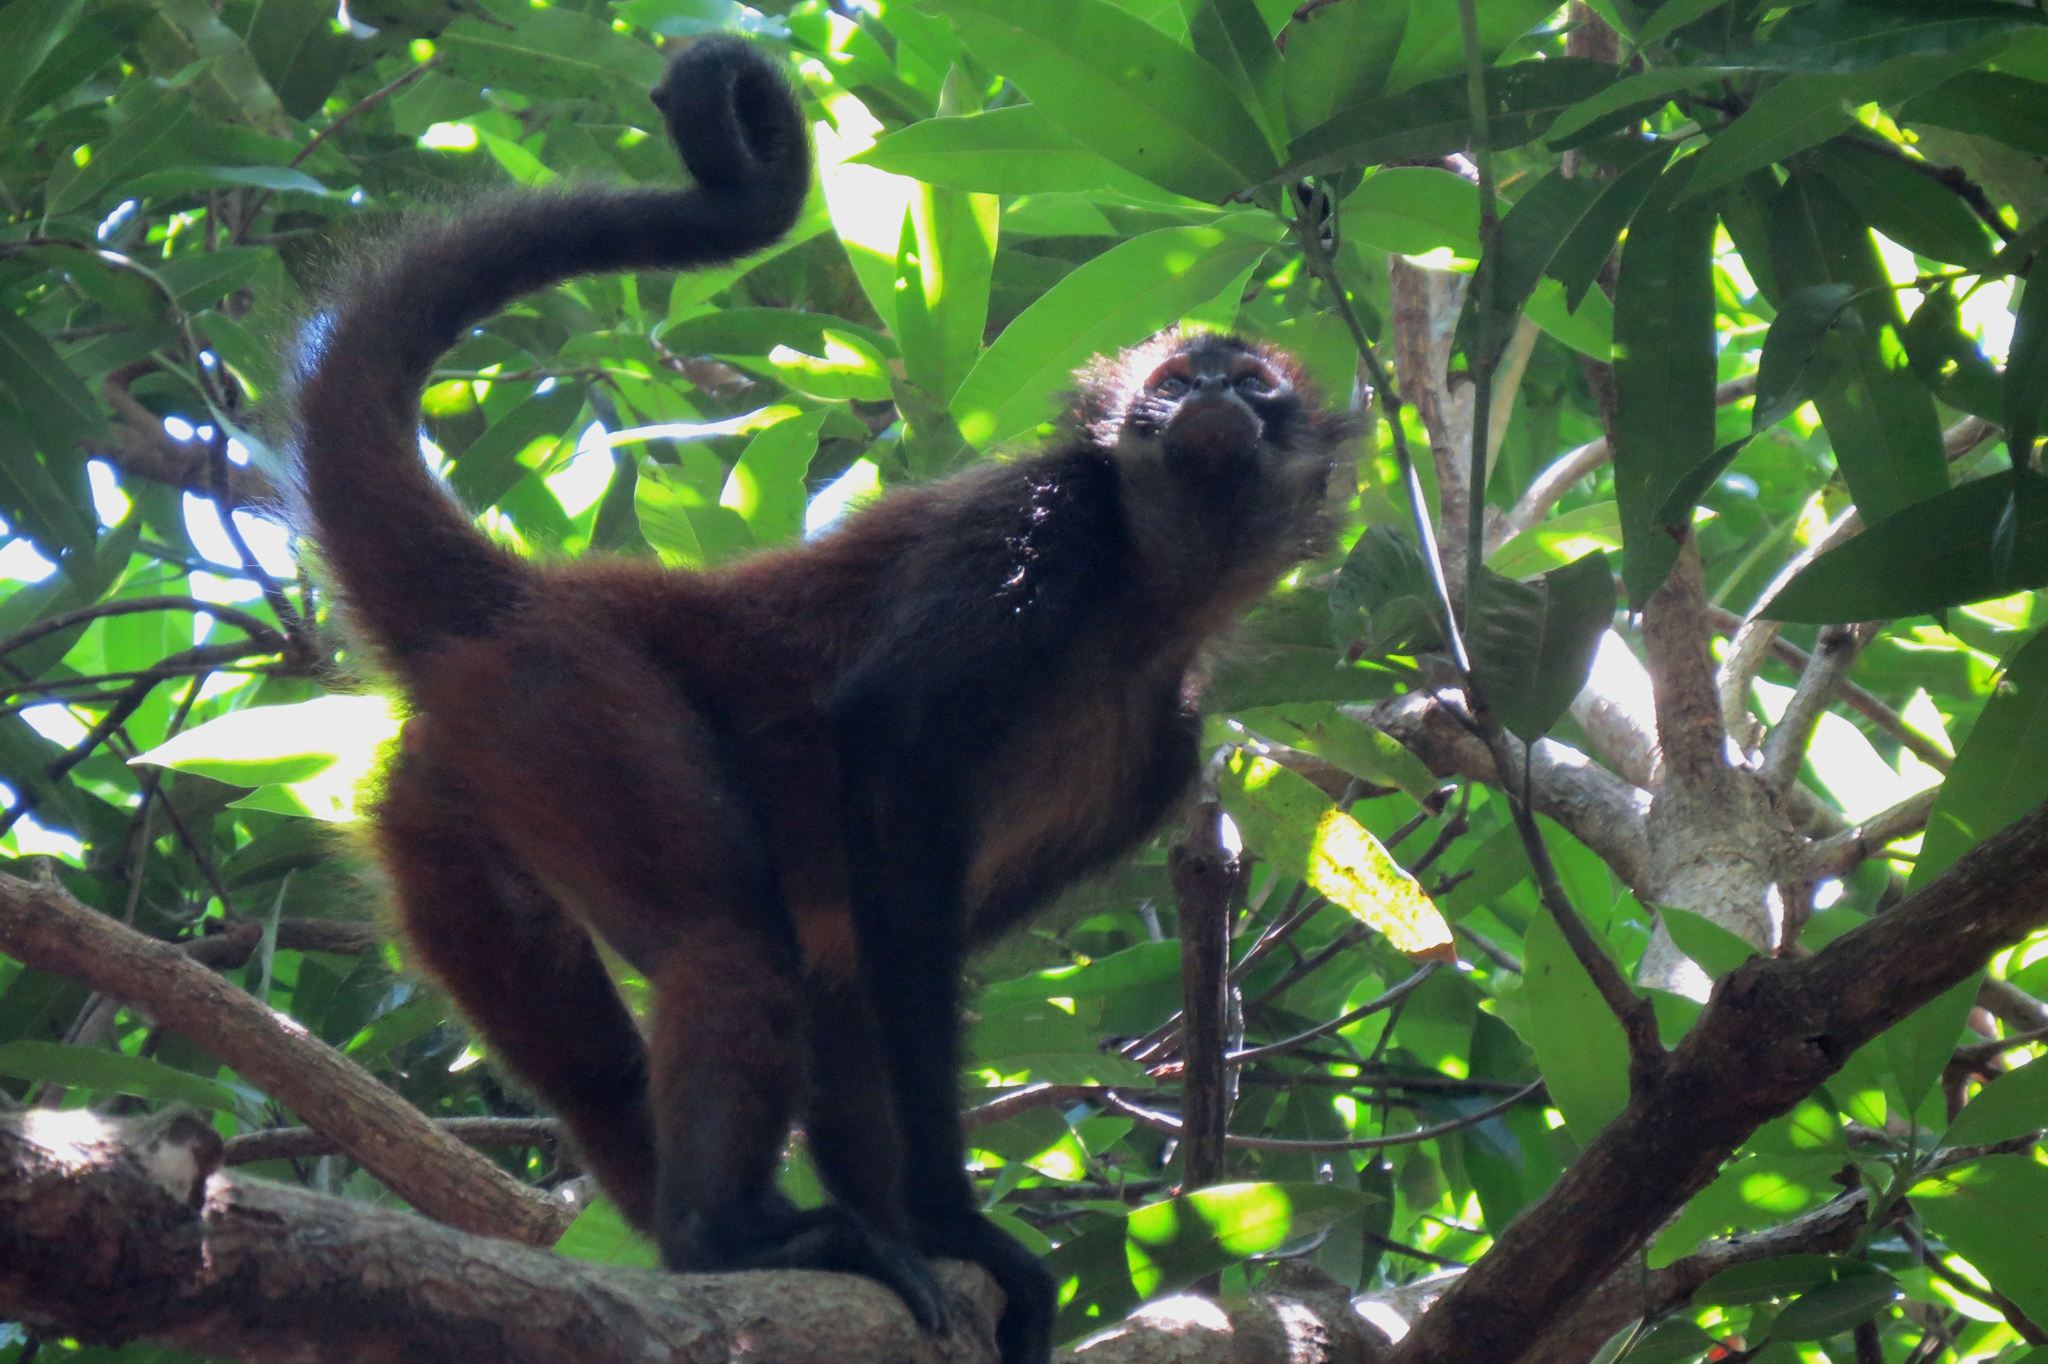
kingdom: Animalia
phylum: Chordata
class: Mammalia
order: Primates
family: Atelidae
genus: Ateles
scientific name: Ateles geoffroyi
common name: Black-handed spider monkey
